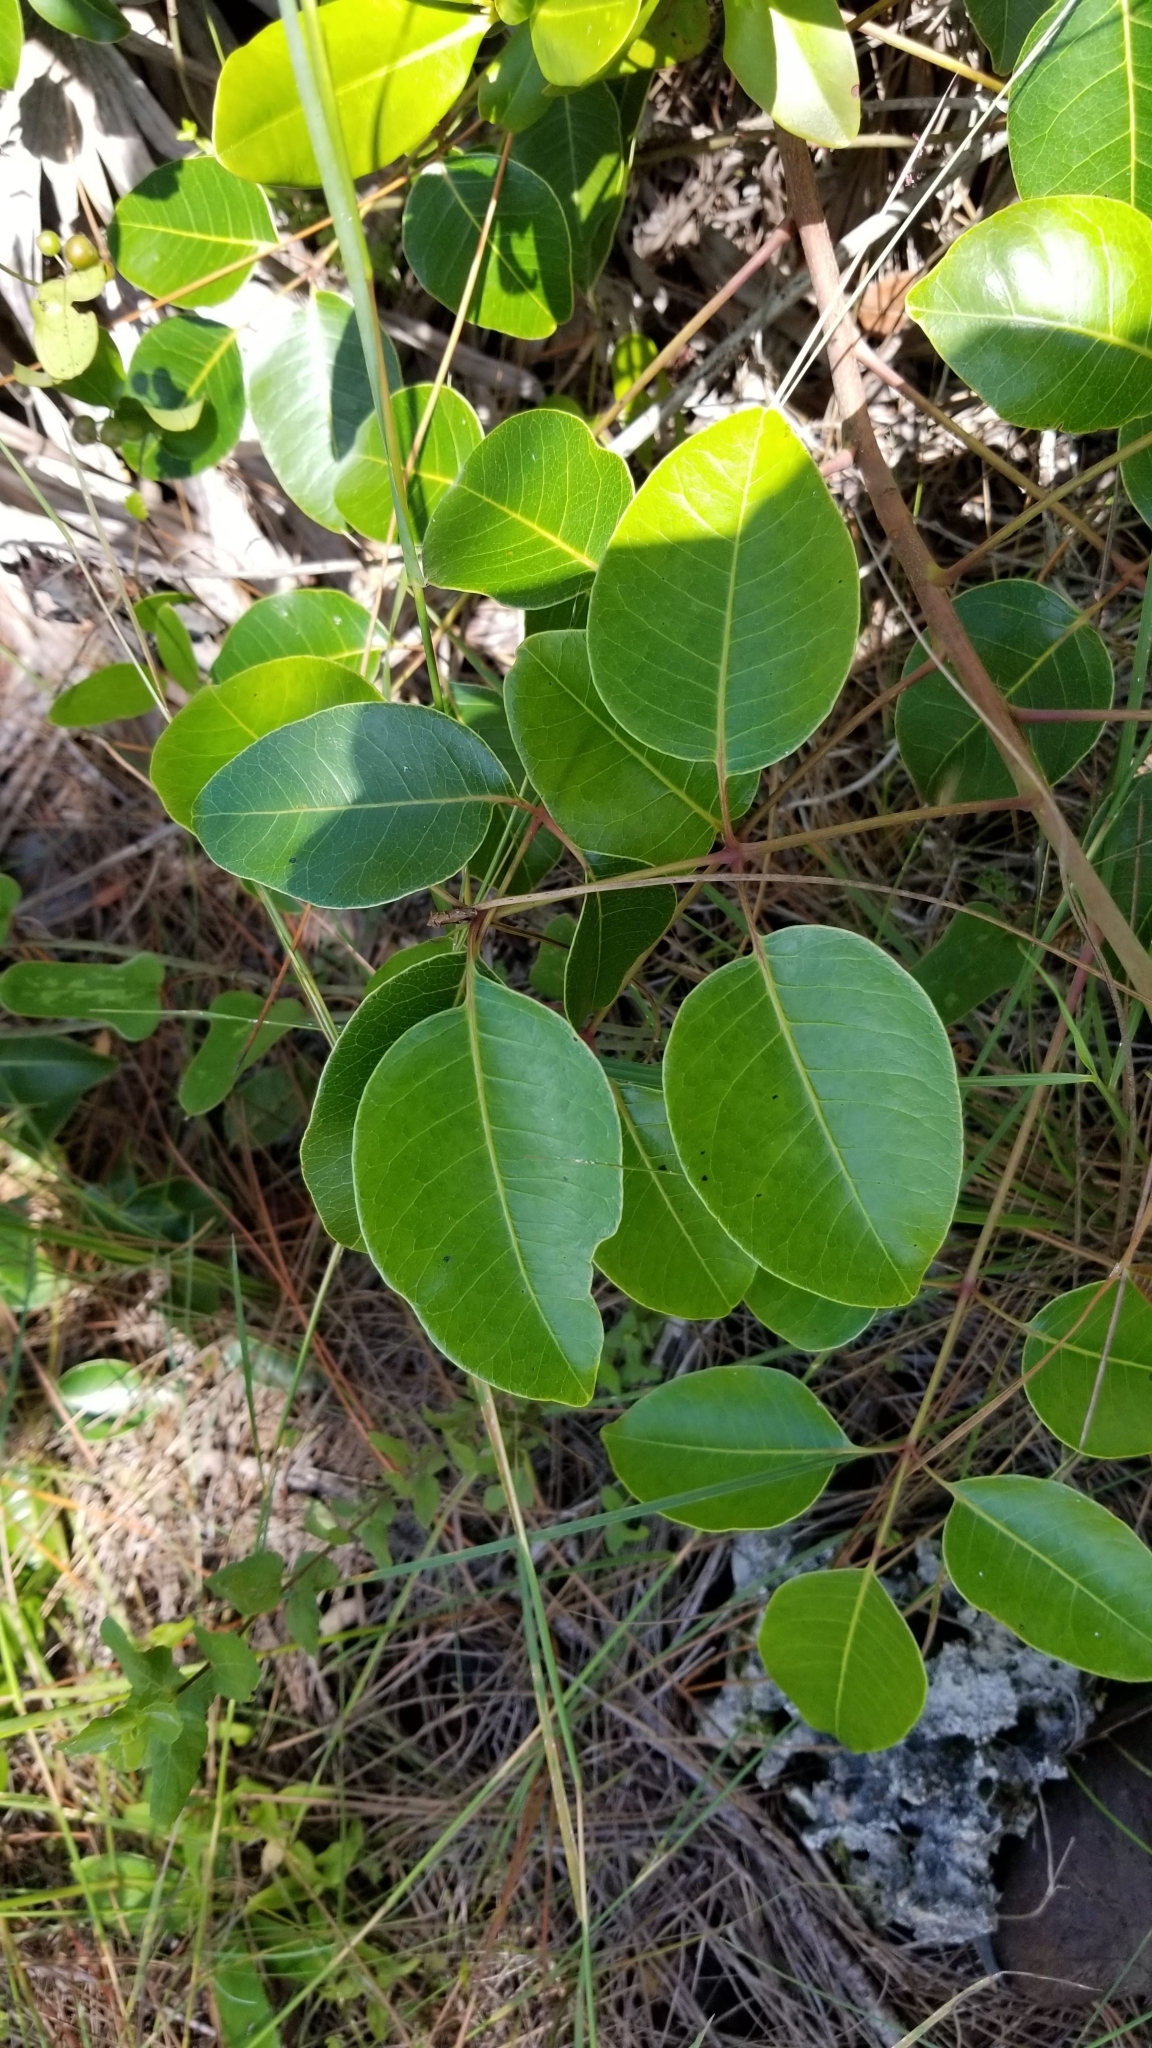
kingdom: Plantae
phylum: Tracheophyta
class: Magnoliopsida
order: Sapindales
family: Anacardiaceae
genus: Metopium
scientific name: Metopium toxiferum
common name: Florida poisontree
